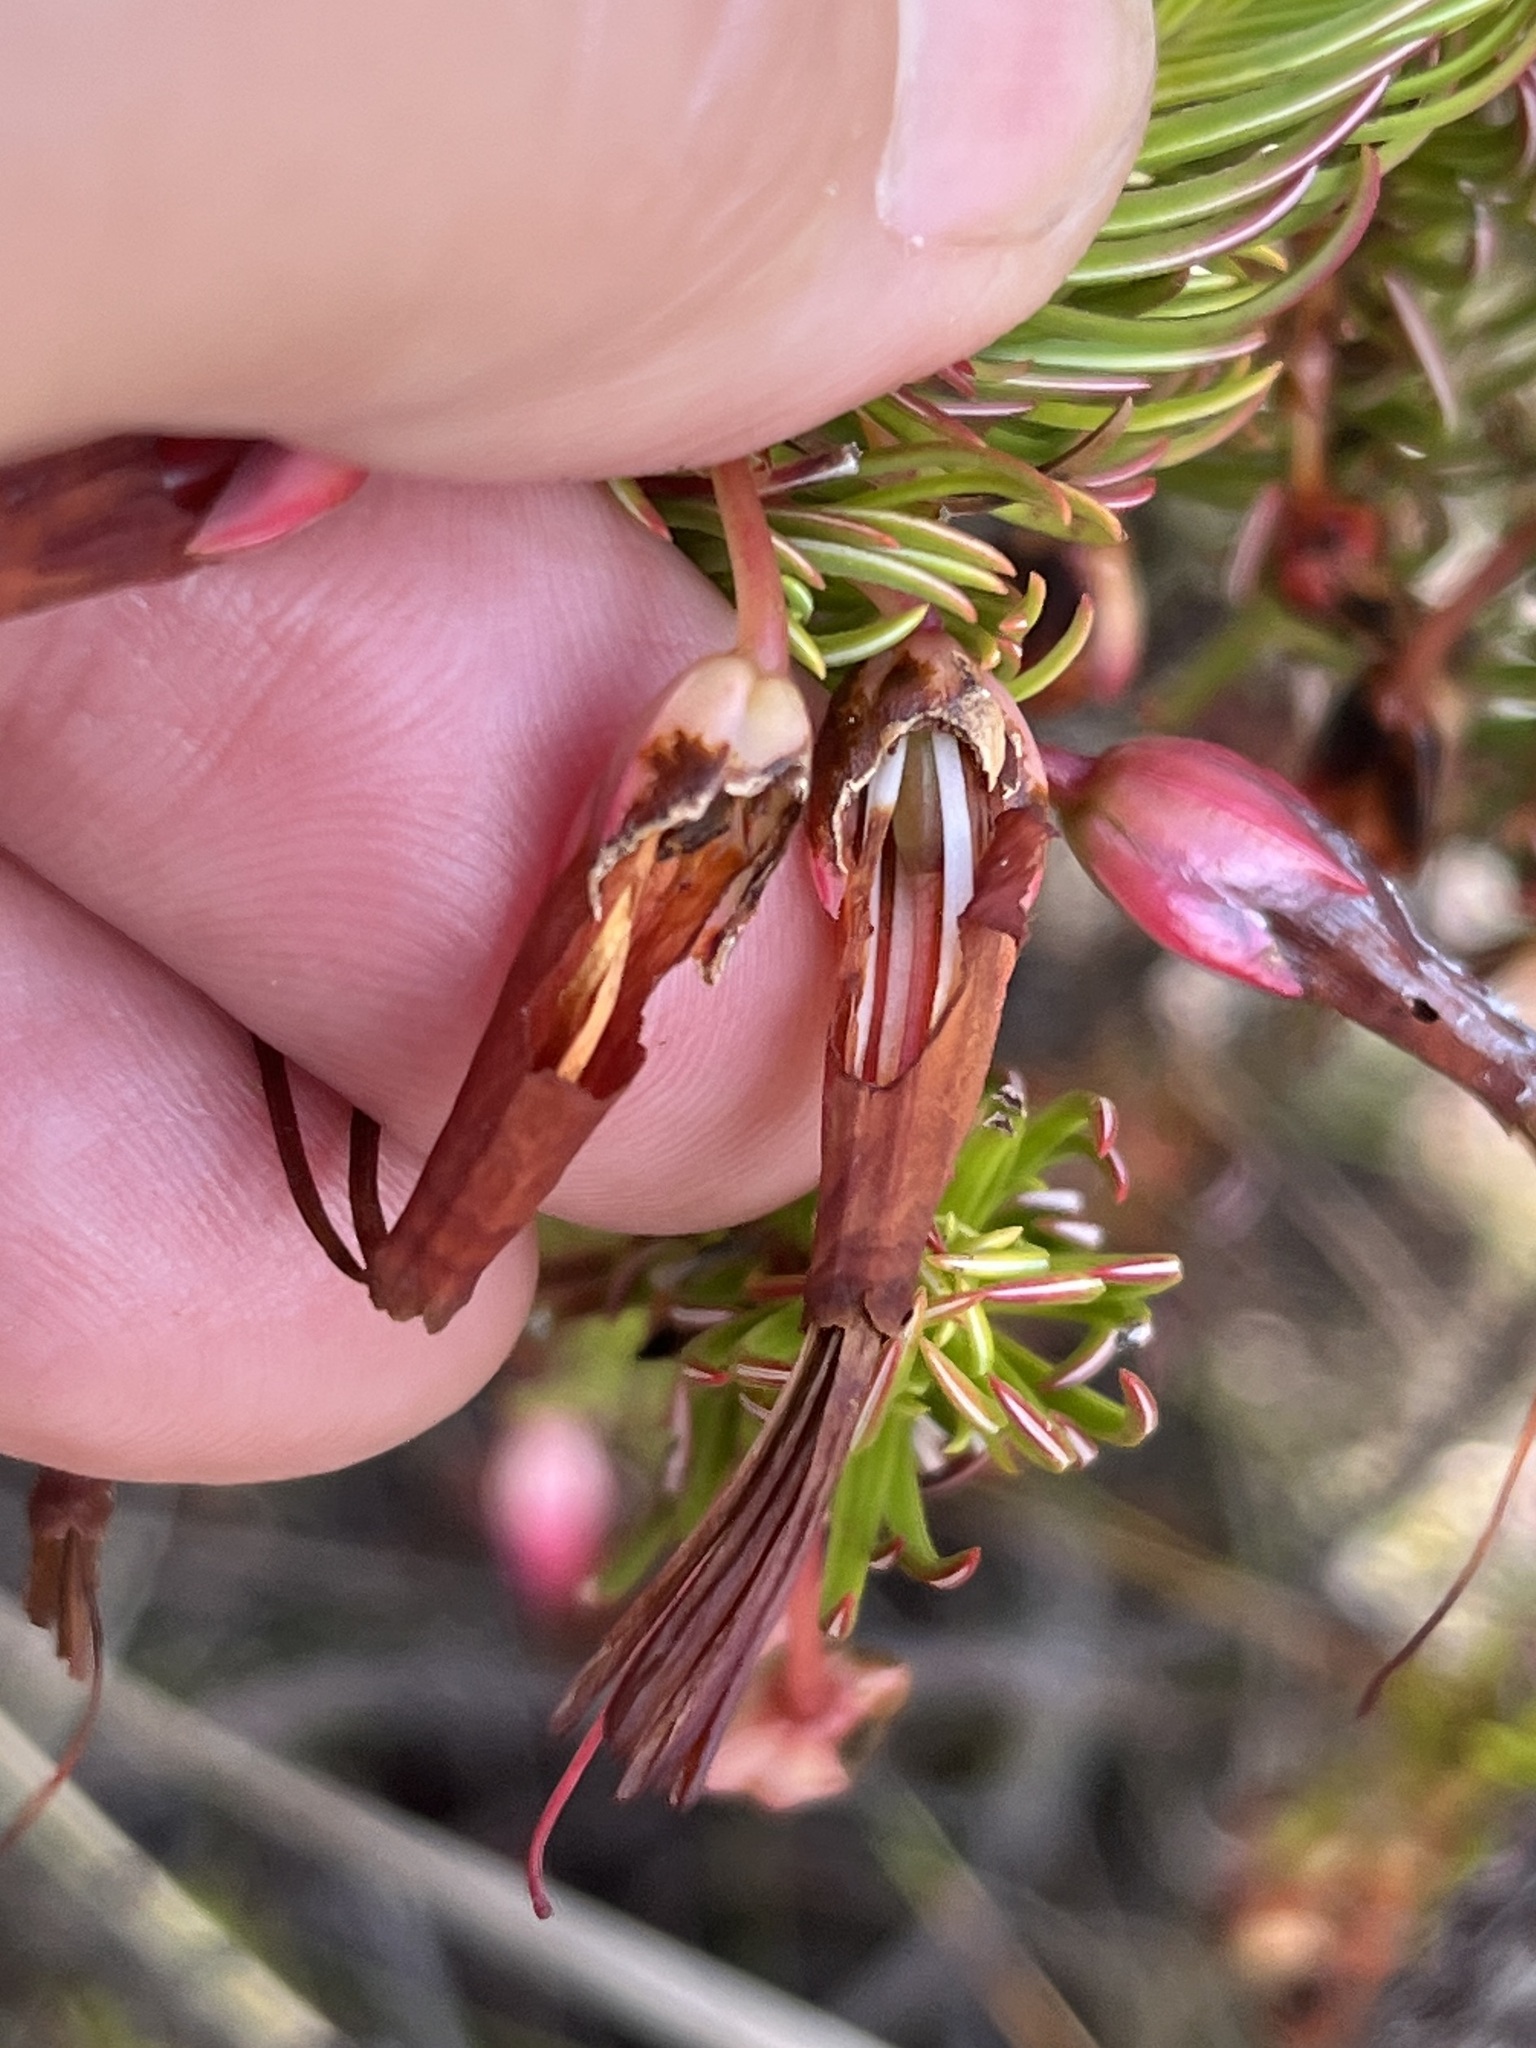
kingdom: Plantae
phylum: Tracheophyta
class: Magnoliopsida
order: Ericales
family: Ericaceae
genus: Erica
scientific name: Erica plukenetii
